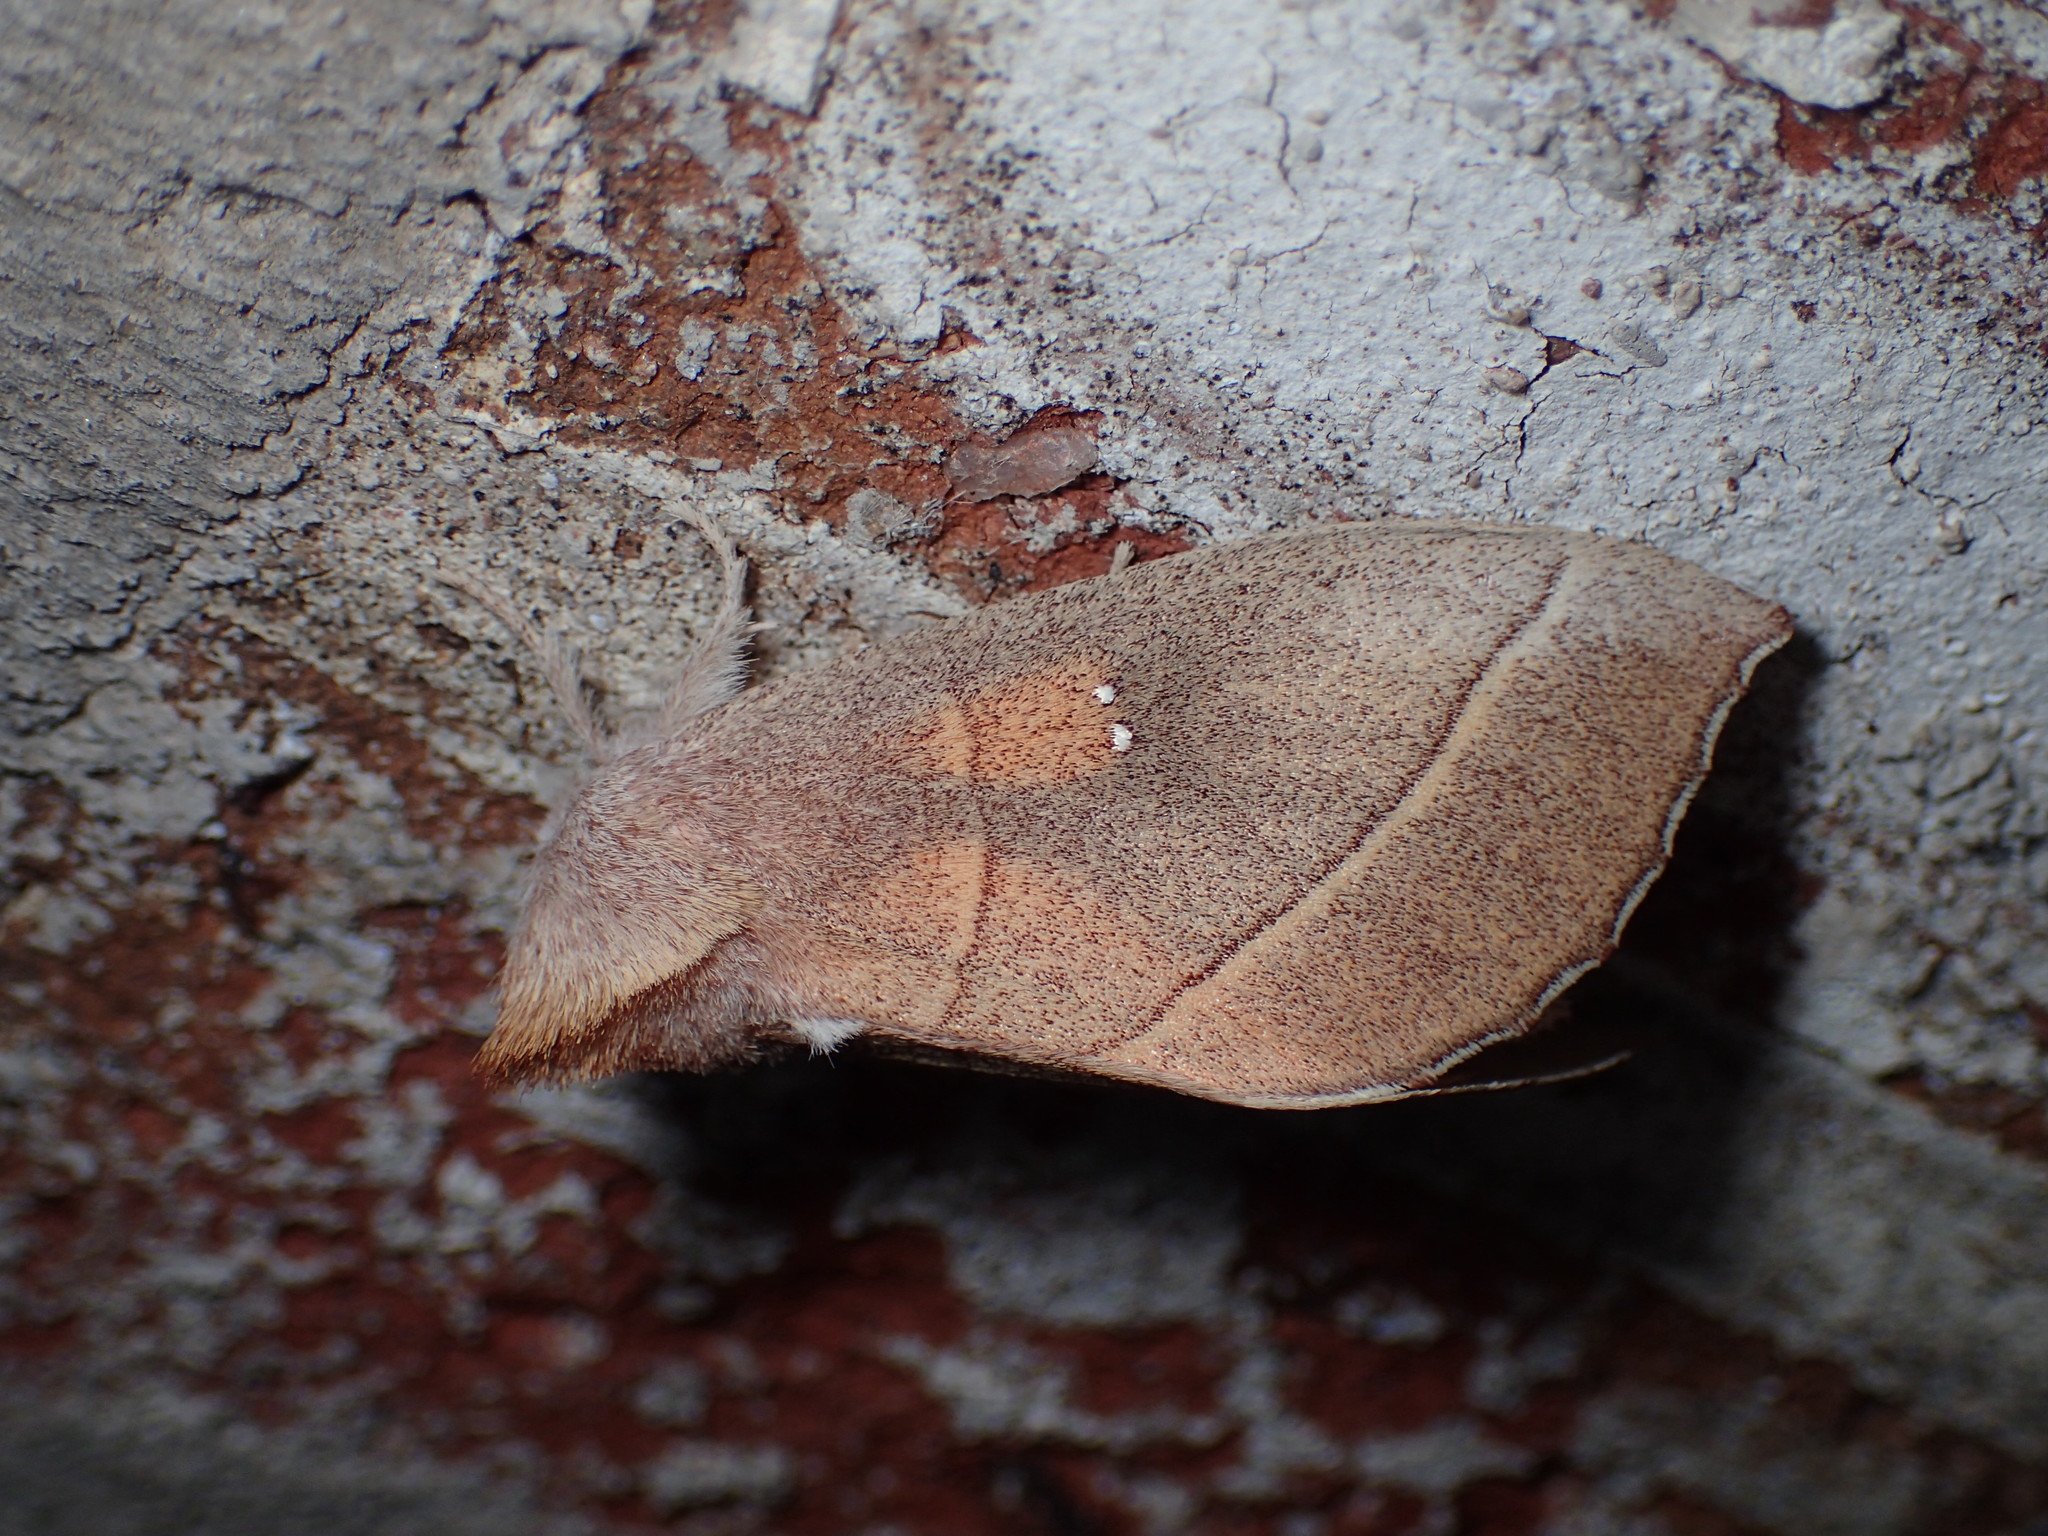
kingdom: Animalia
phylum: Arthropoda
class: Insecta
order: Lepidoptera
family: Notodontidae
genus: Nadata
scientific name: Nadata gibbosa
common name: White-dotted prominent
